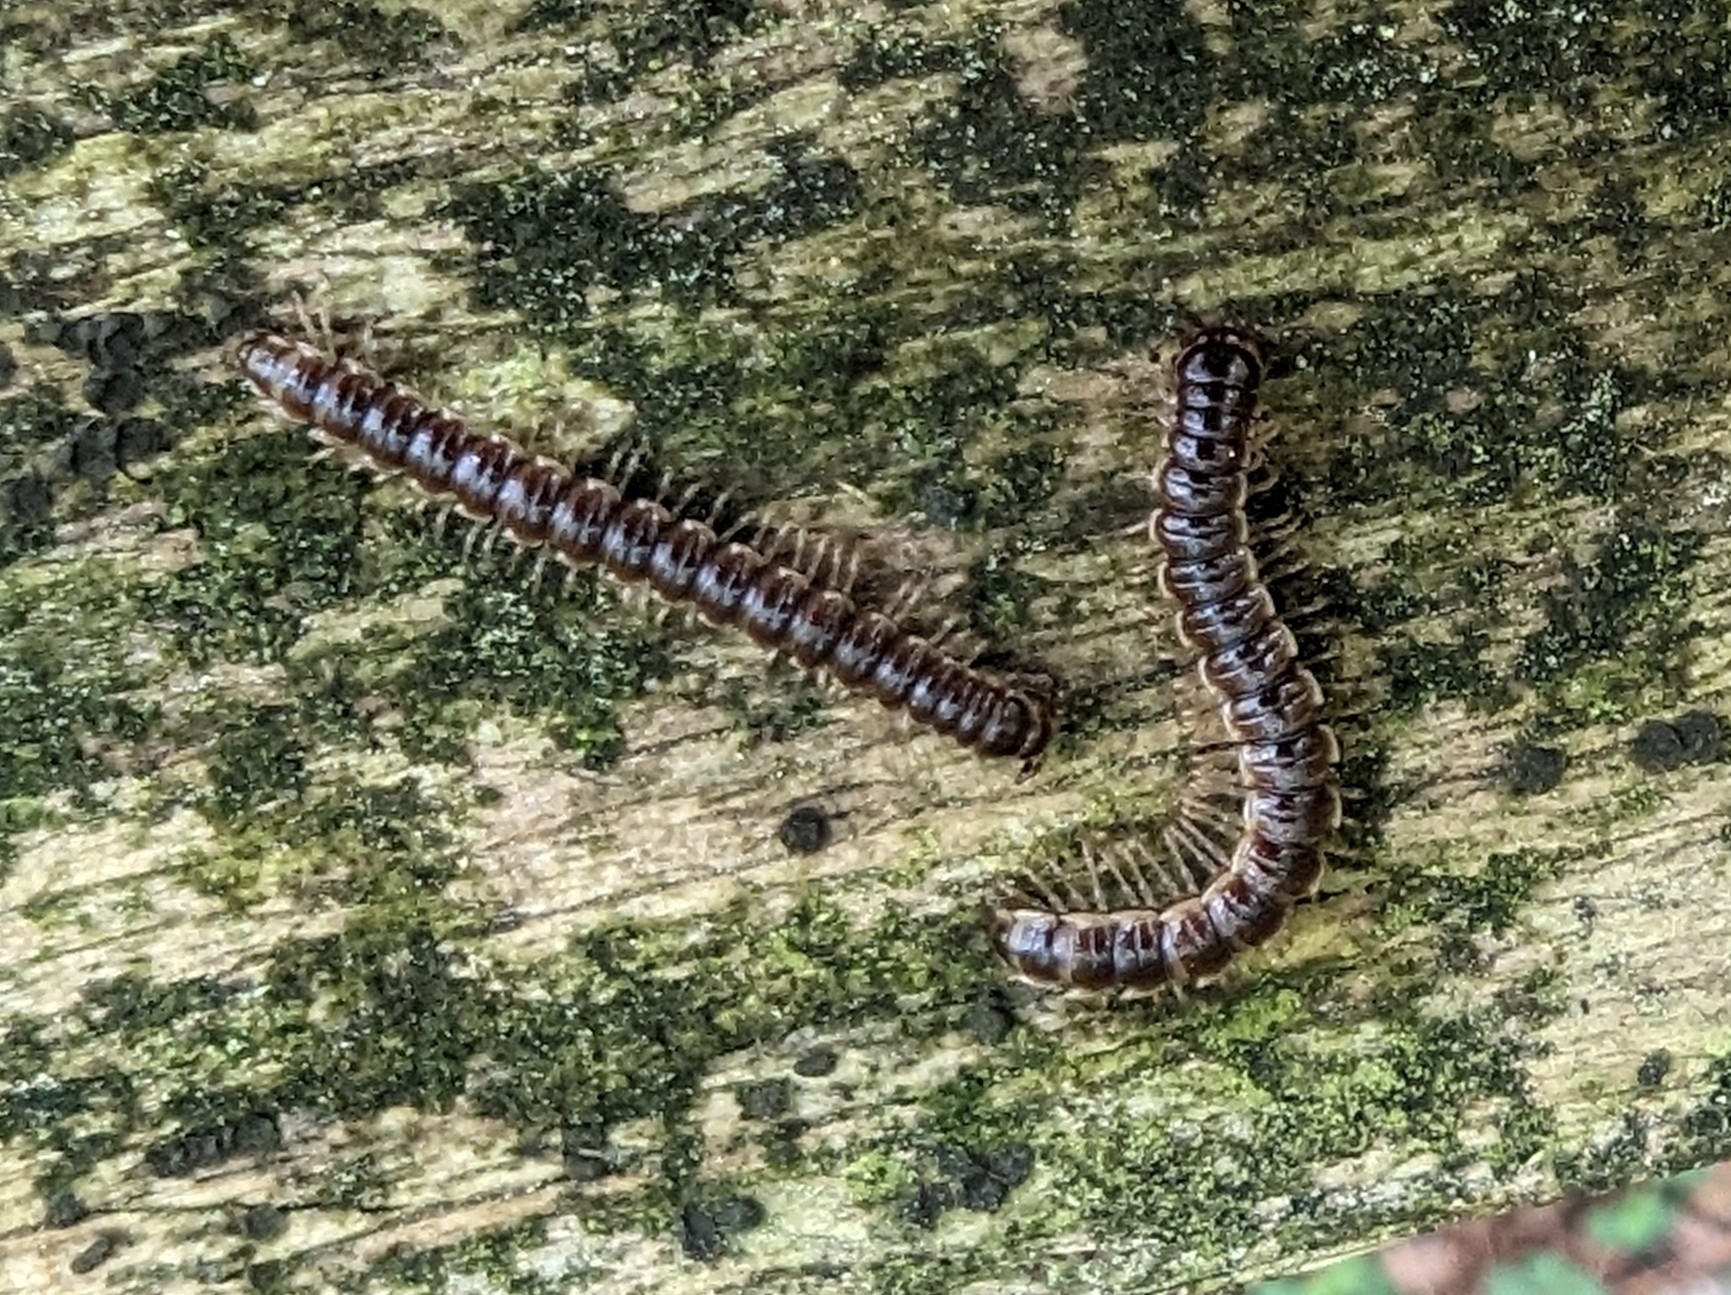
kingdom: Animalia
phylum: Arthropoda
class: Diplopoda
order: Polydesmida
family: Paradoxosomatidae
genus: Oxidus
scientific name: Oxidus gracilis
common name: Greenhouse millipede
